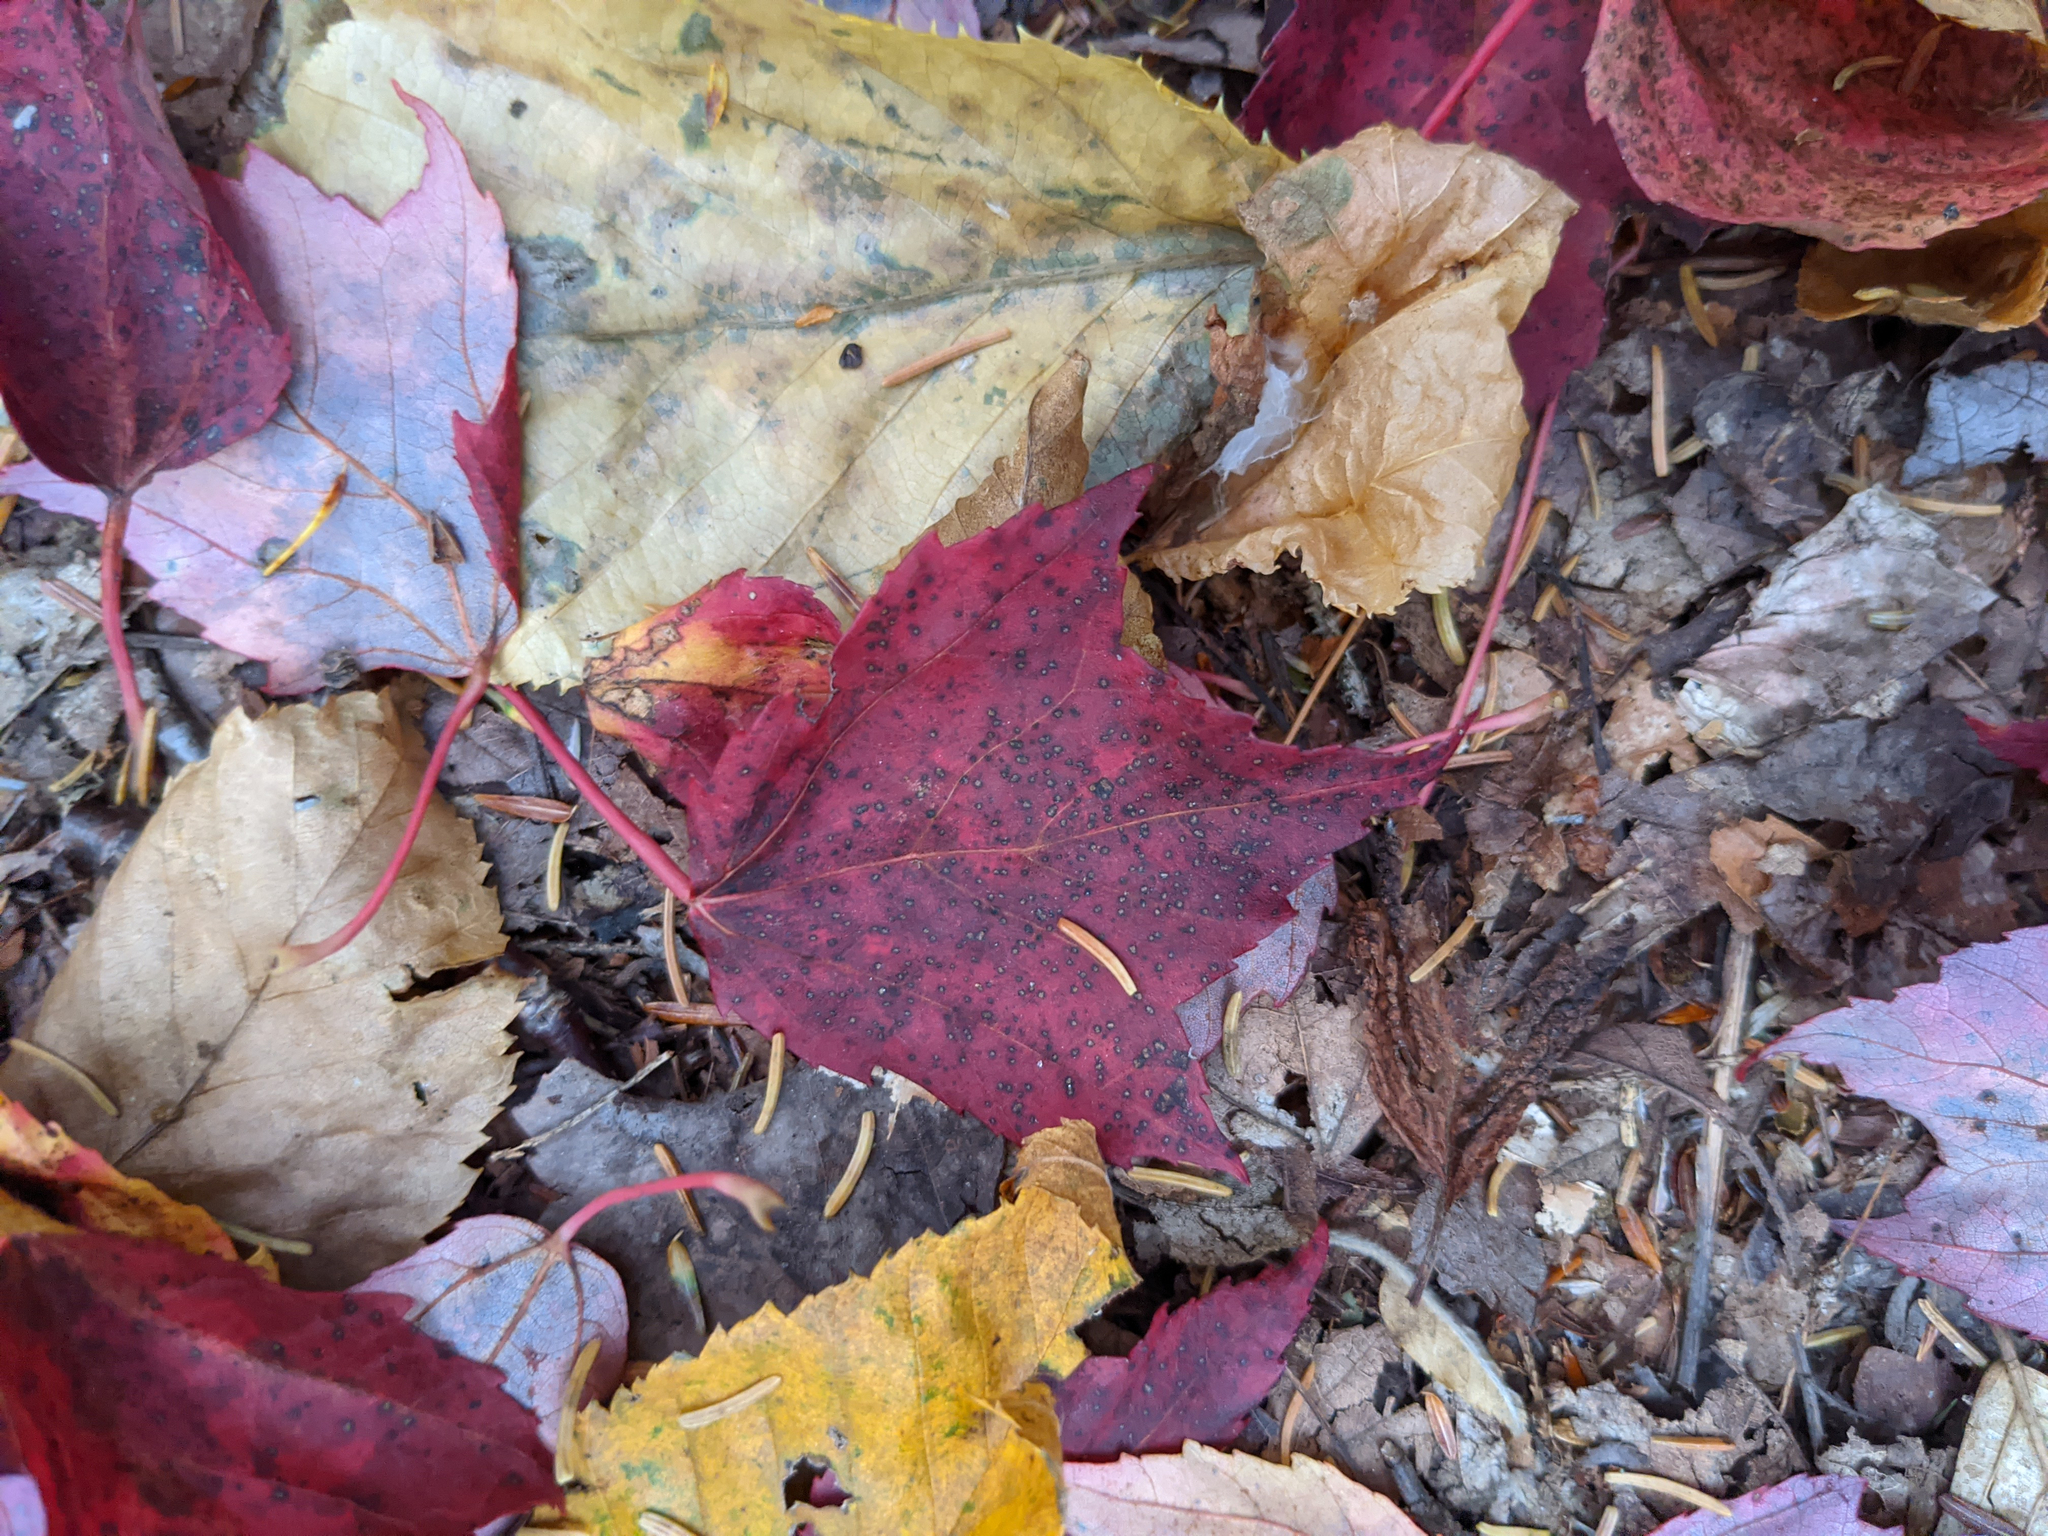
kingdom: Plantae
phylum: Tracheophyta
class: Magnoliopsida
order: Sapindales
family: Sapindaceae
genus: Acer
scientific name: Acer rubrum
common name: Red maple
